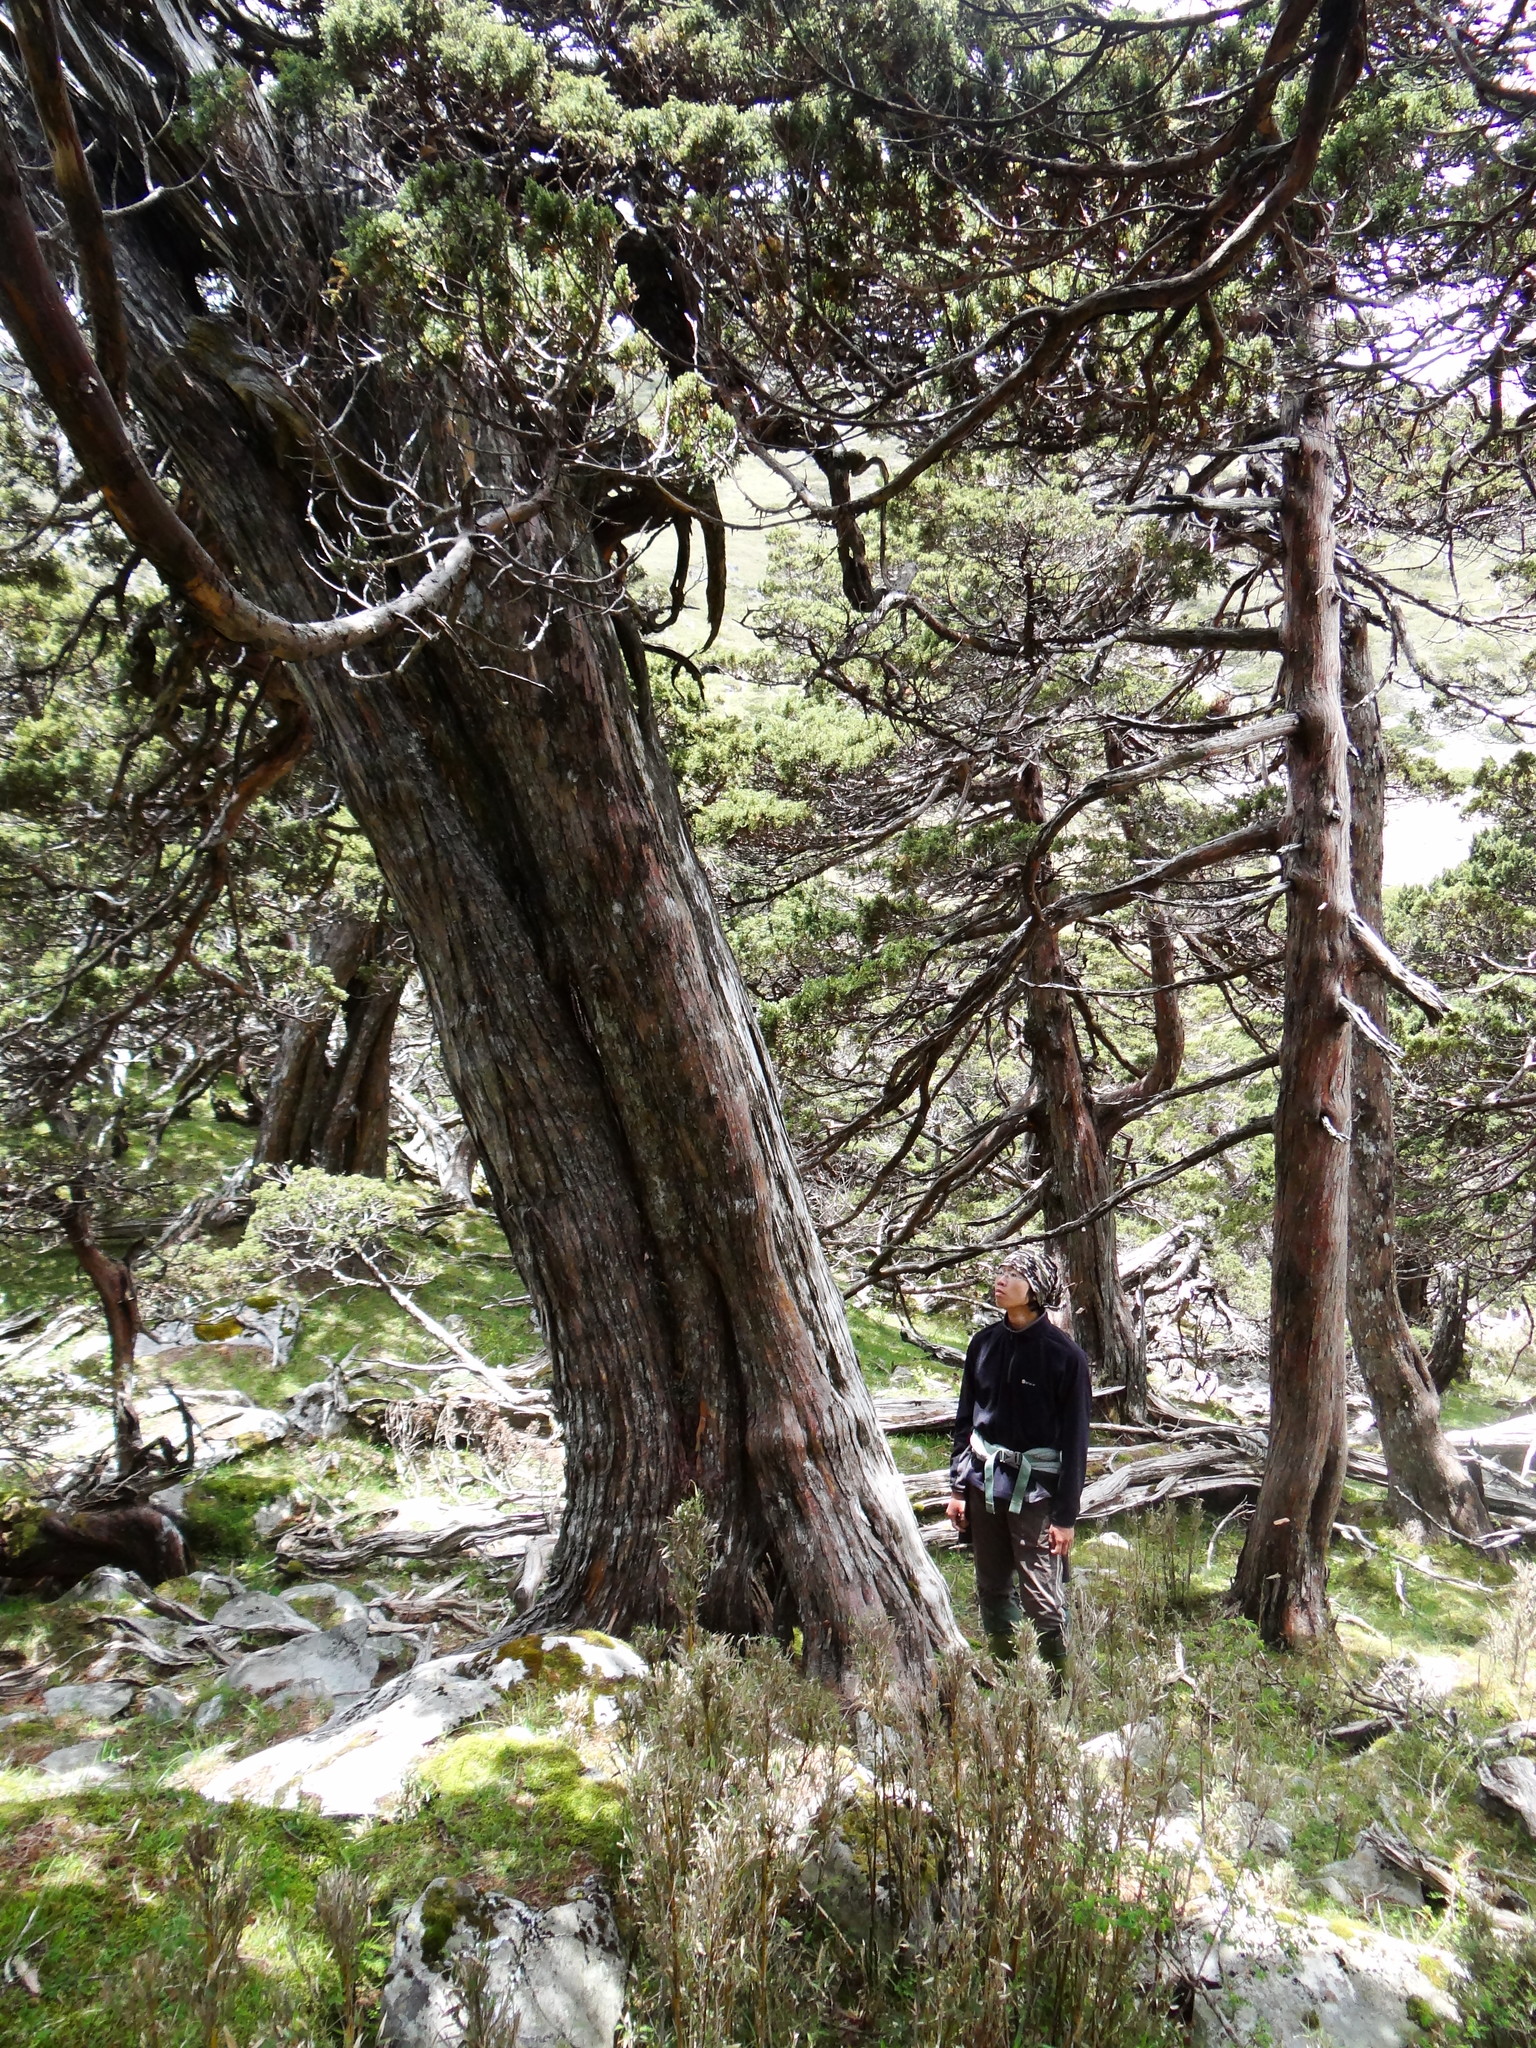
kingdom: Plantae
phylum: Tracheophyta
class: Pinopsida
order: Pinales
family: Cupressaceae
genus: Juniperus
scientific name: Juniperus squamata
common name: Flaky juniper
